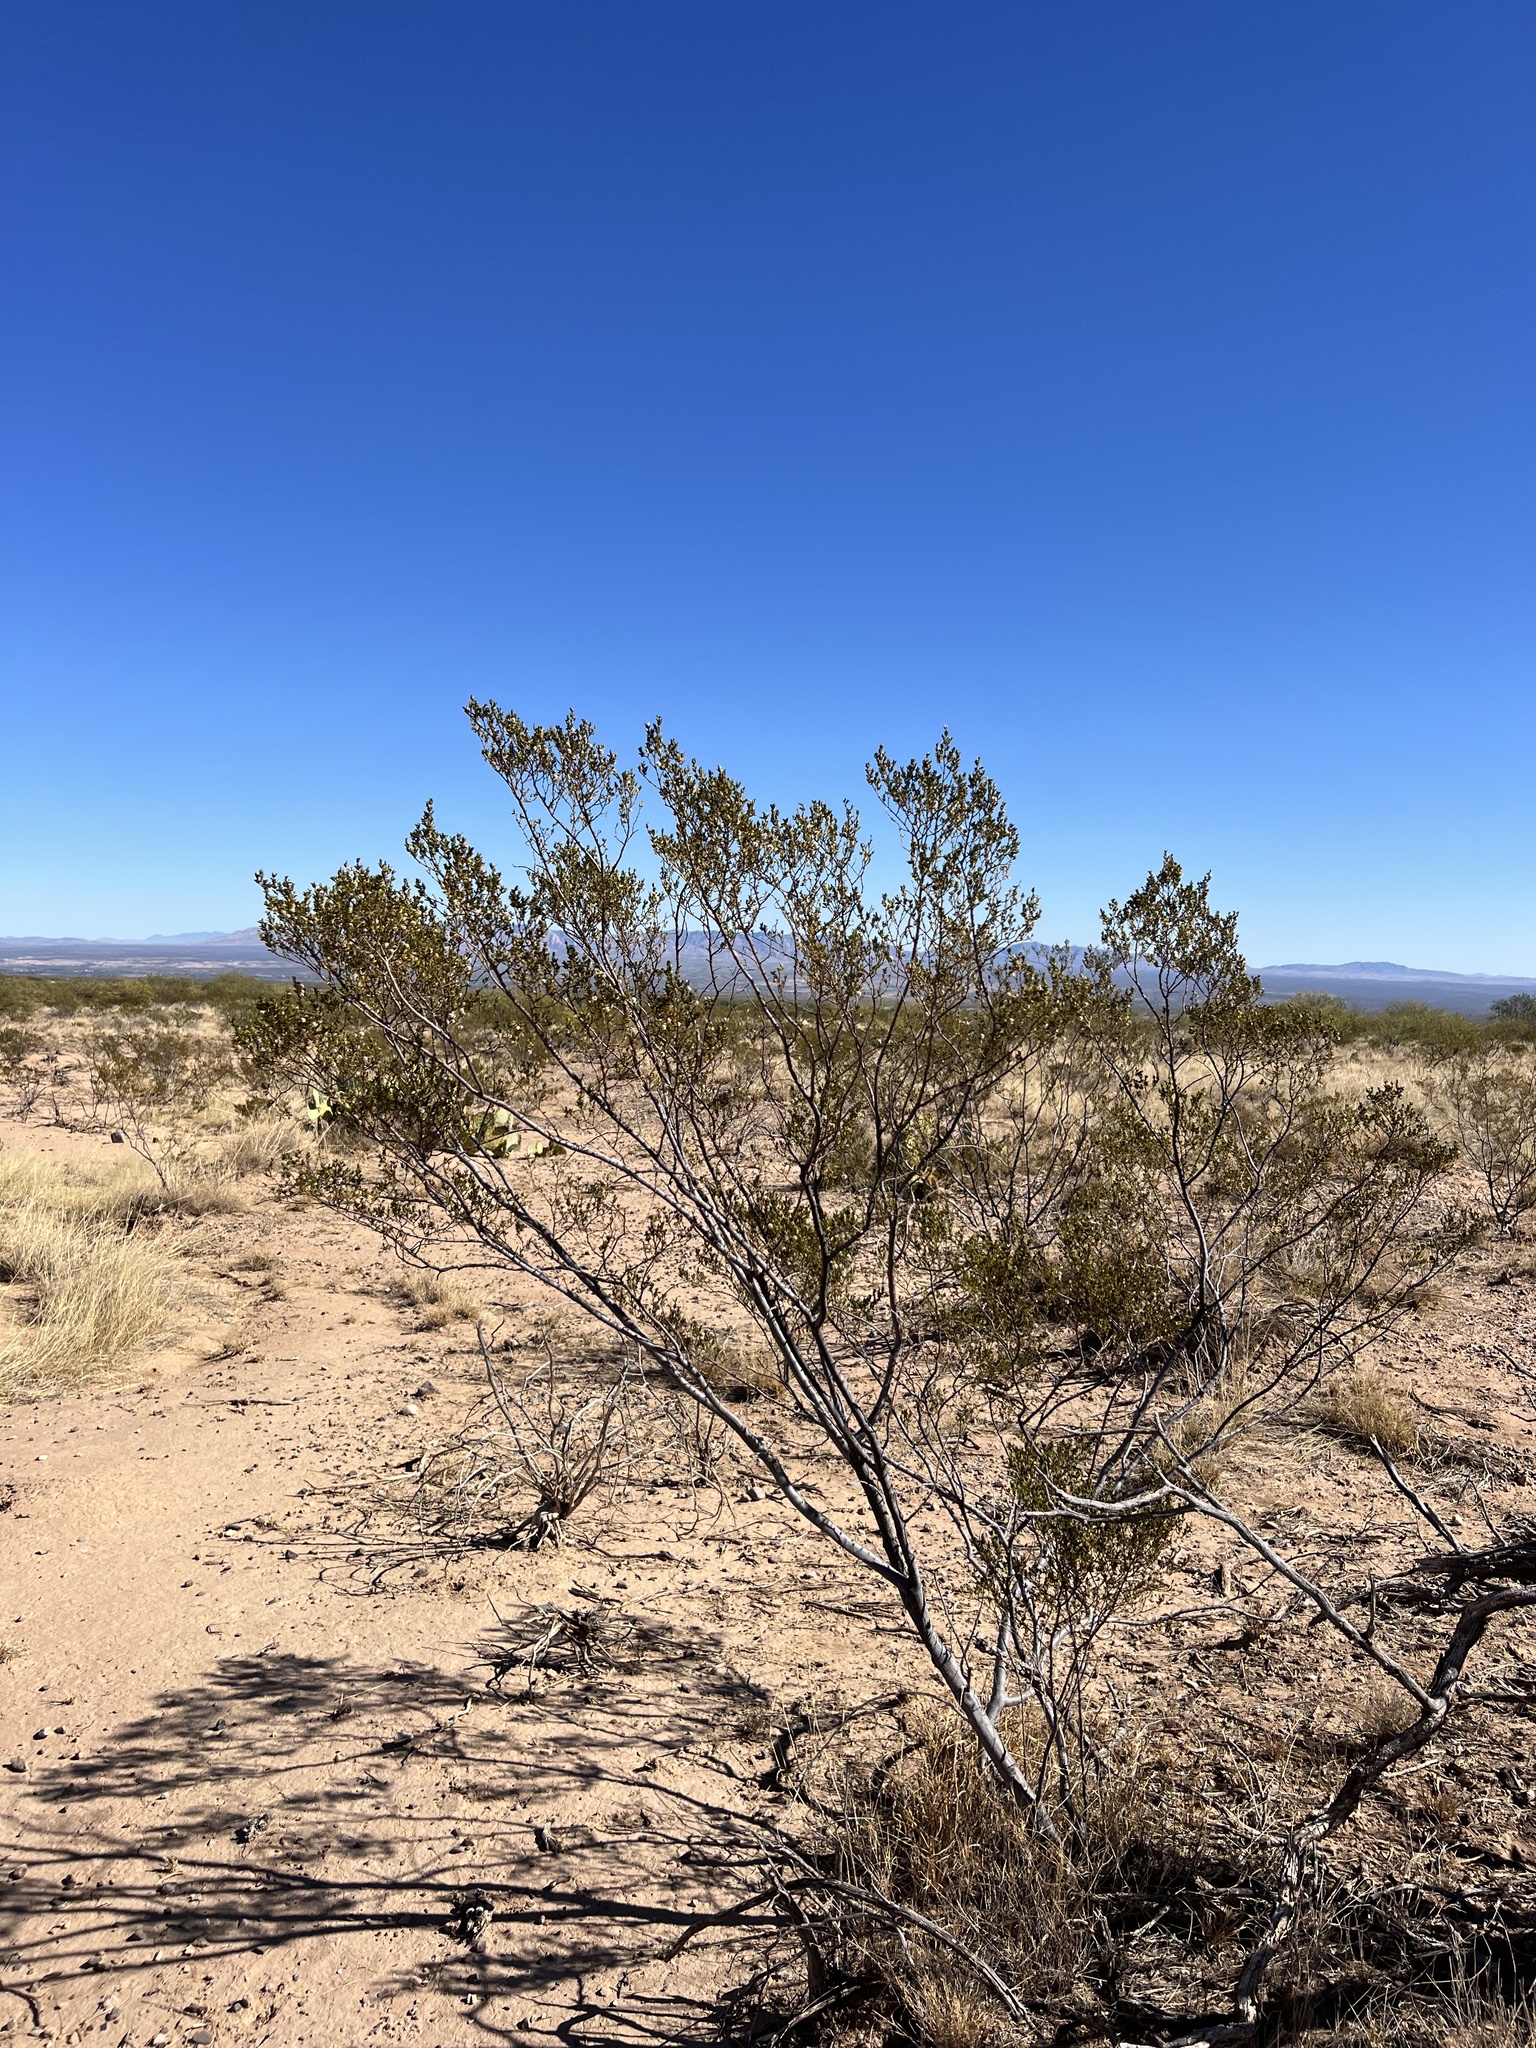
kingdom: Plantae
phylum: Tracheophyta
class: Magnoliopsida
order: Zygophyllales
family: Zygophyllaceae
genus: Larrea
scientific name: Larrea tridentata
